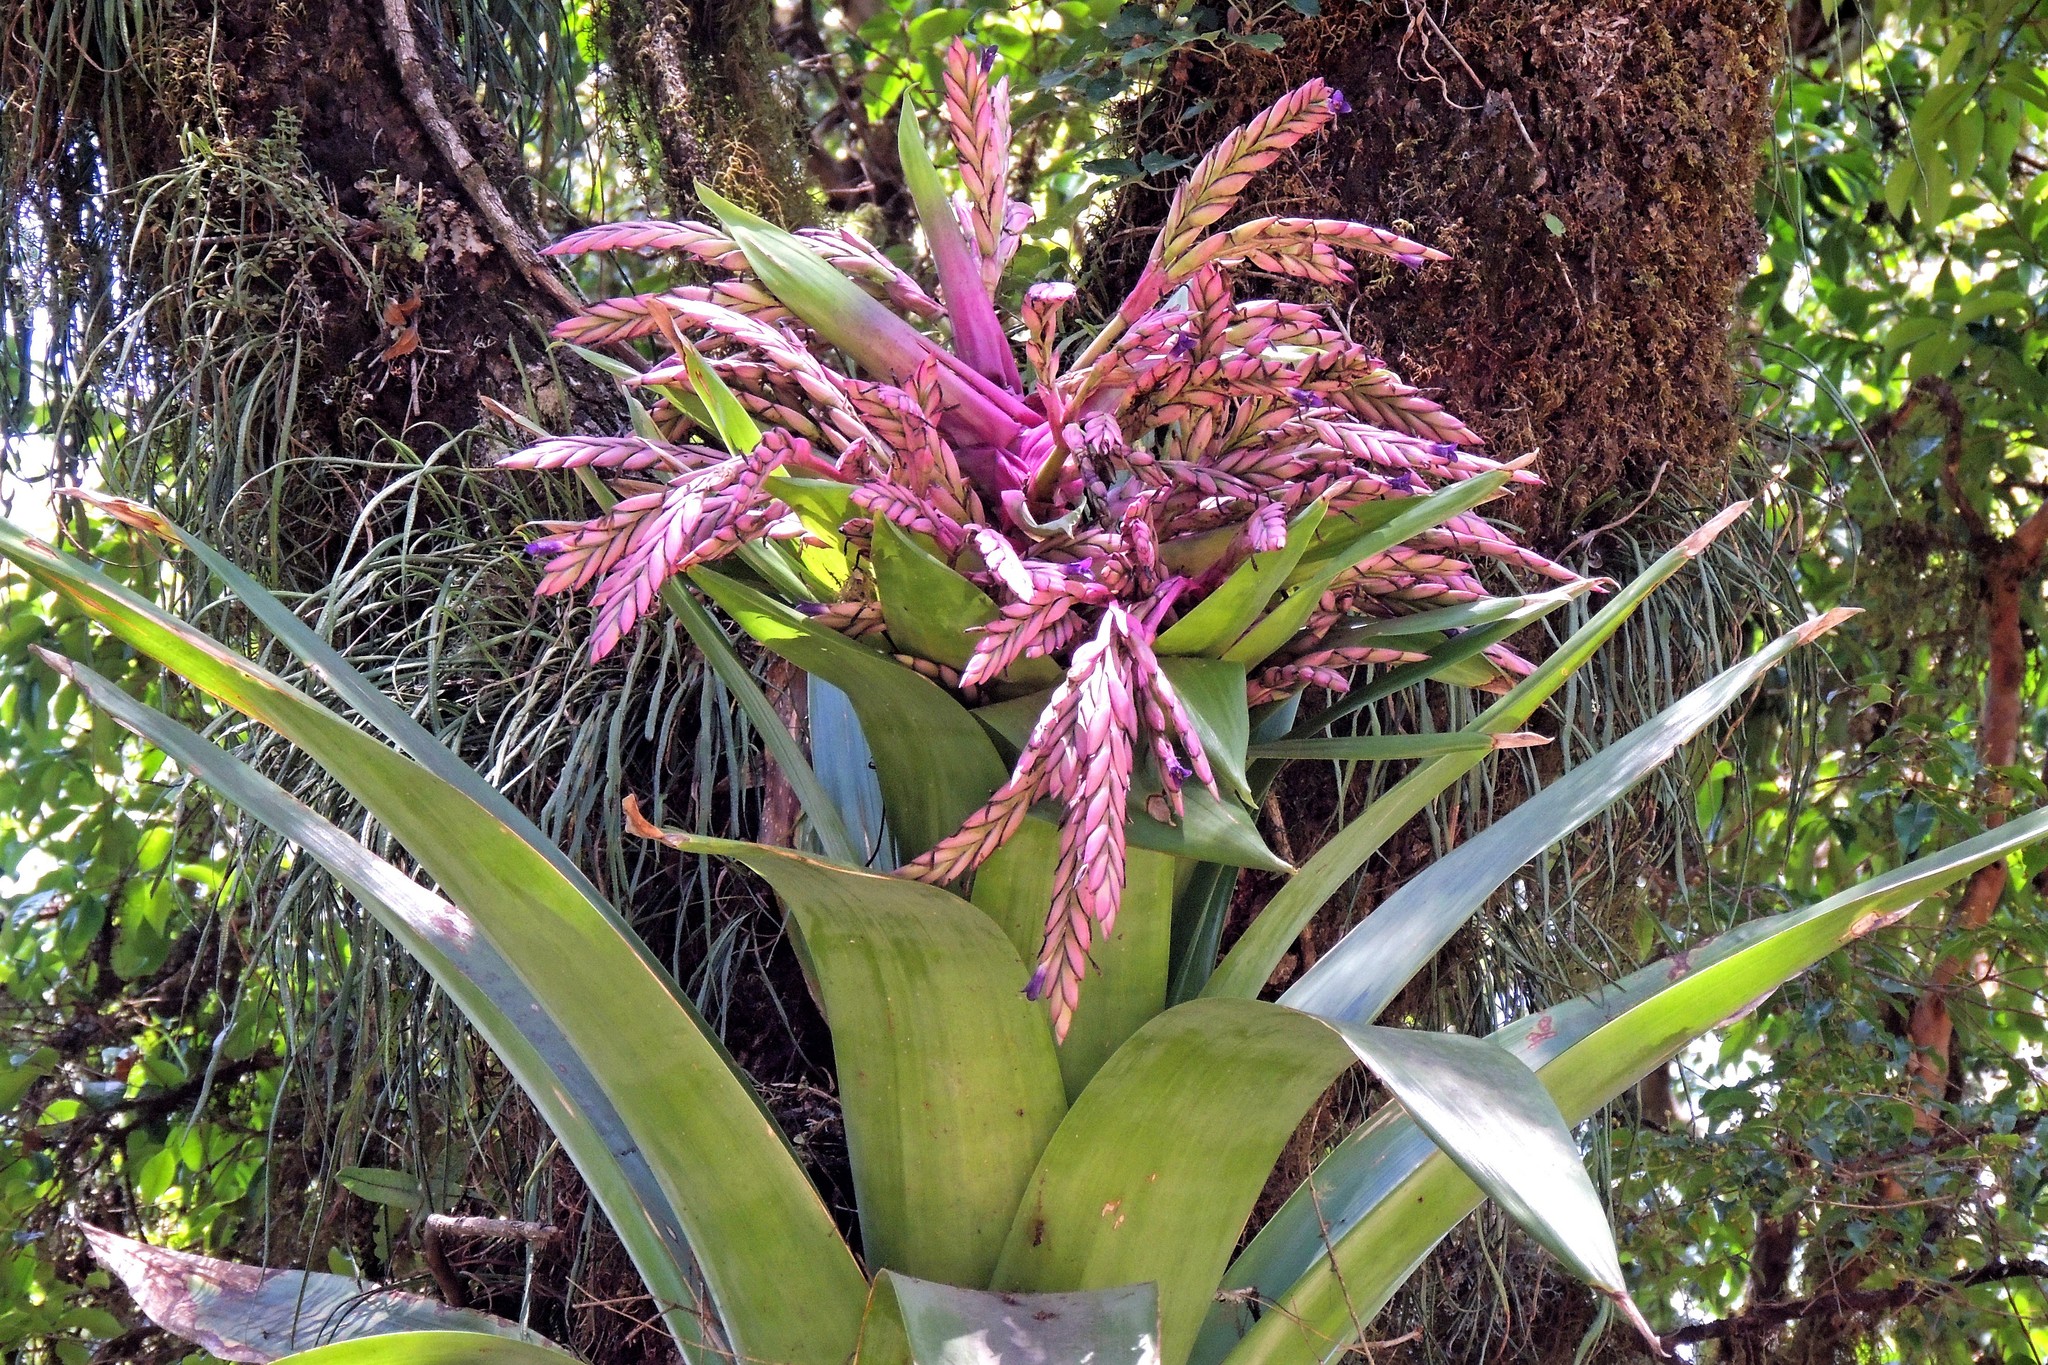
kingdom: Plantae
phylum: Tracheophyta
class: Liliopsida
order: Poales
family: Bromeliaceae
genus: Tillandsia
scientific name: Tillandsia australis
